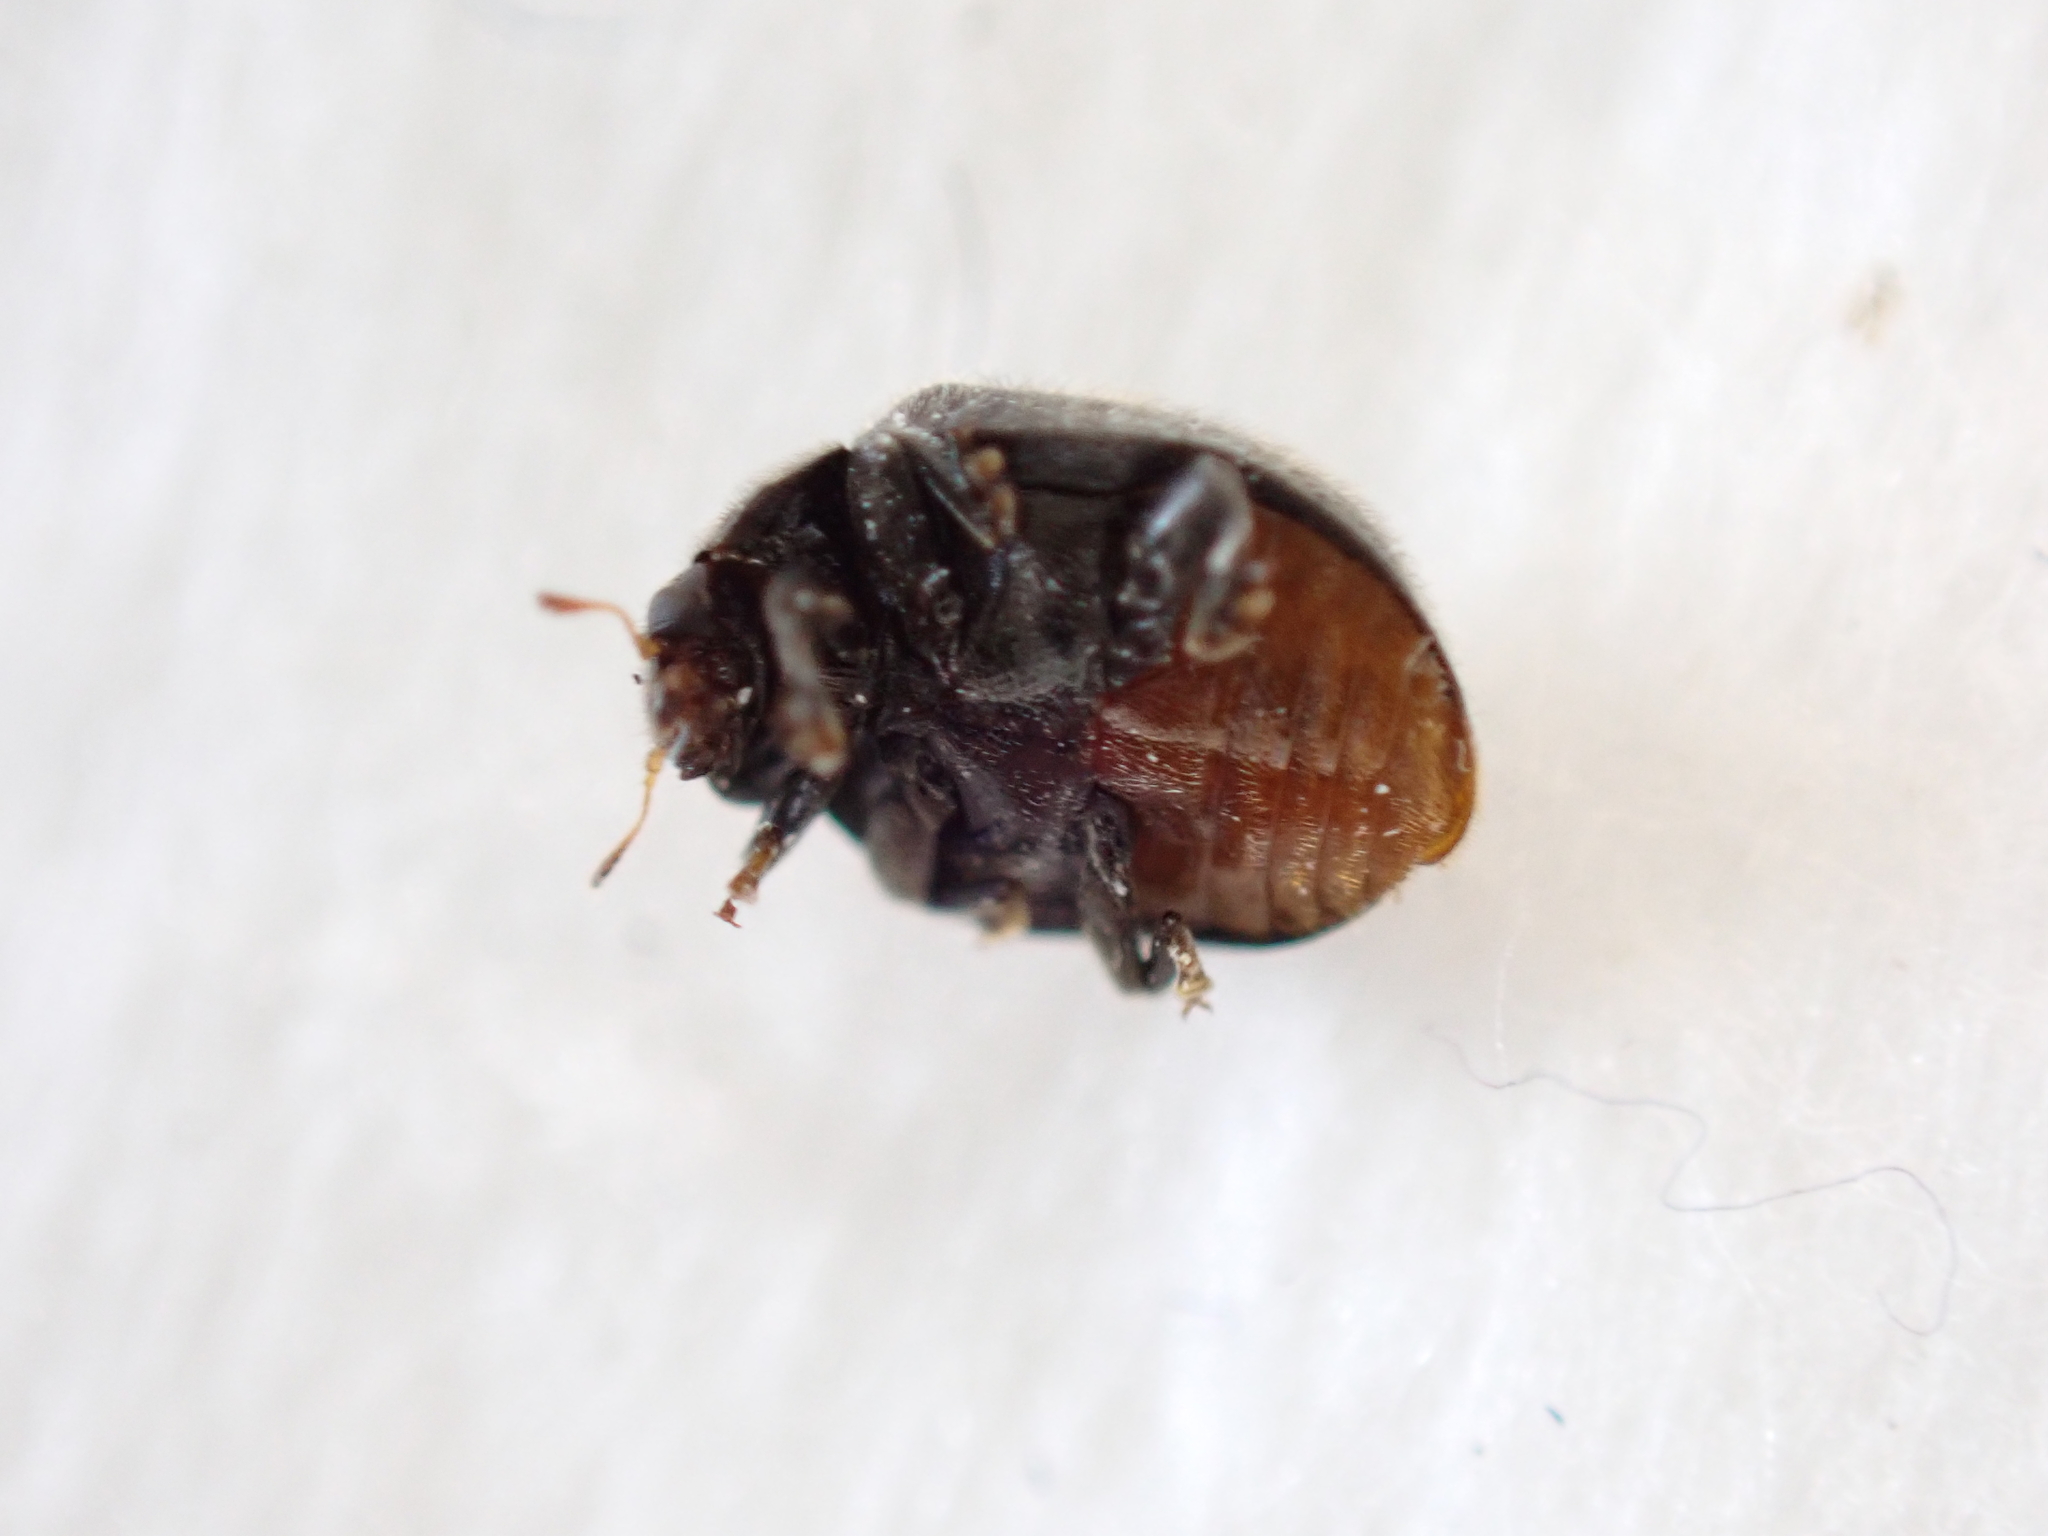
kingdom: Animalia
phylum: Arthropoda
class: Insecta
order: Coleoptera
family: Coccinellidae
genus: Rhyzobius
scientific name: Rhyzobius forestieri
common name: Ladybird beetle
